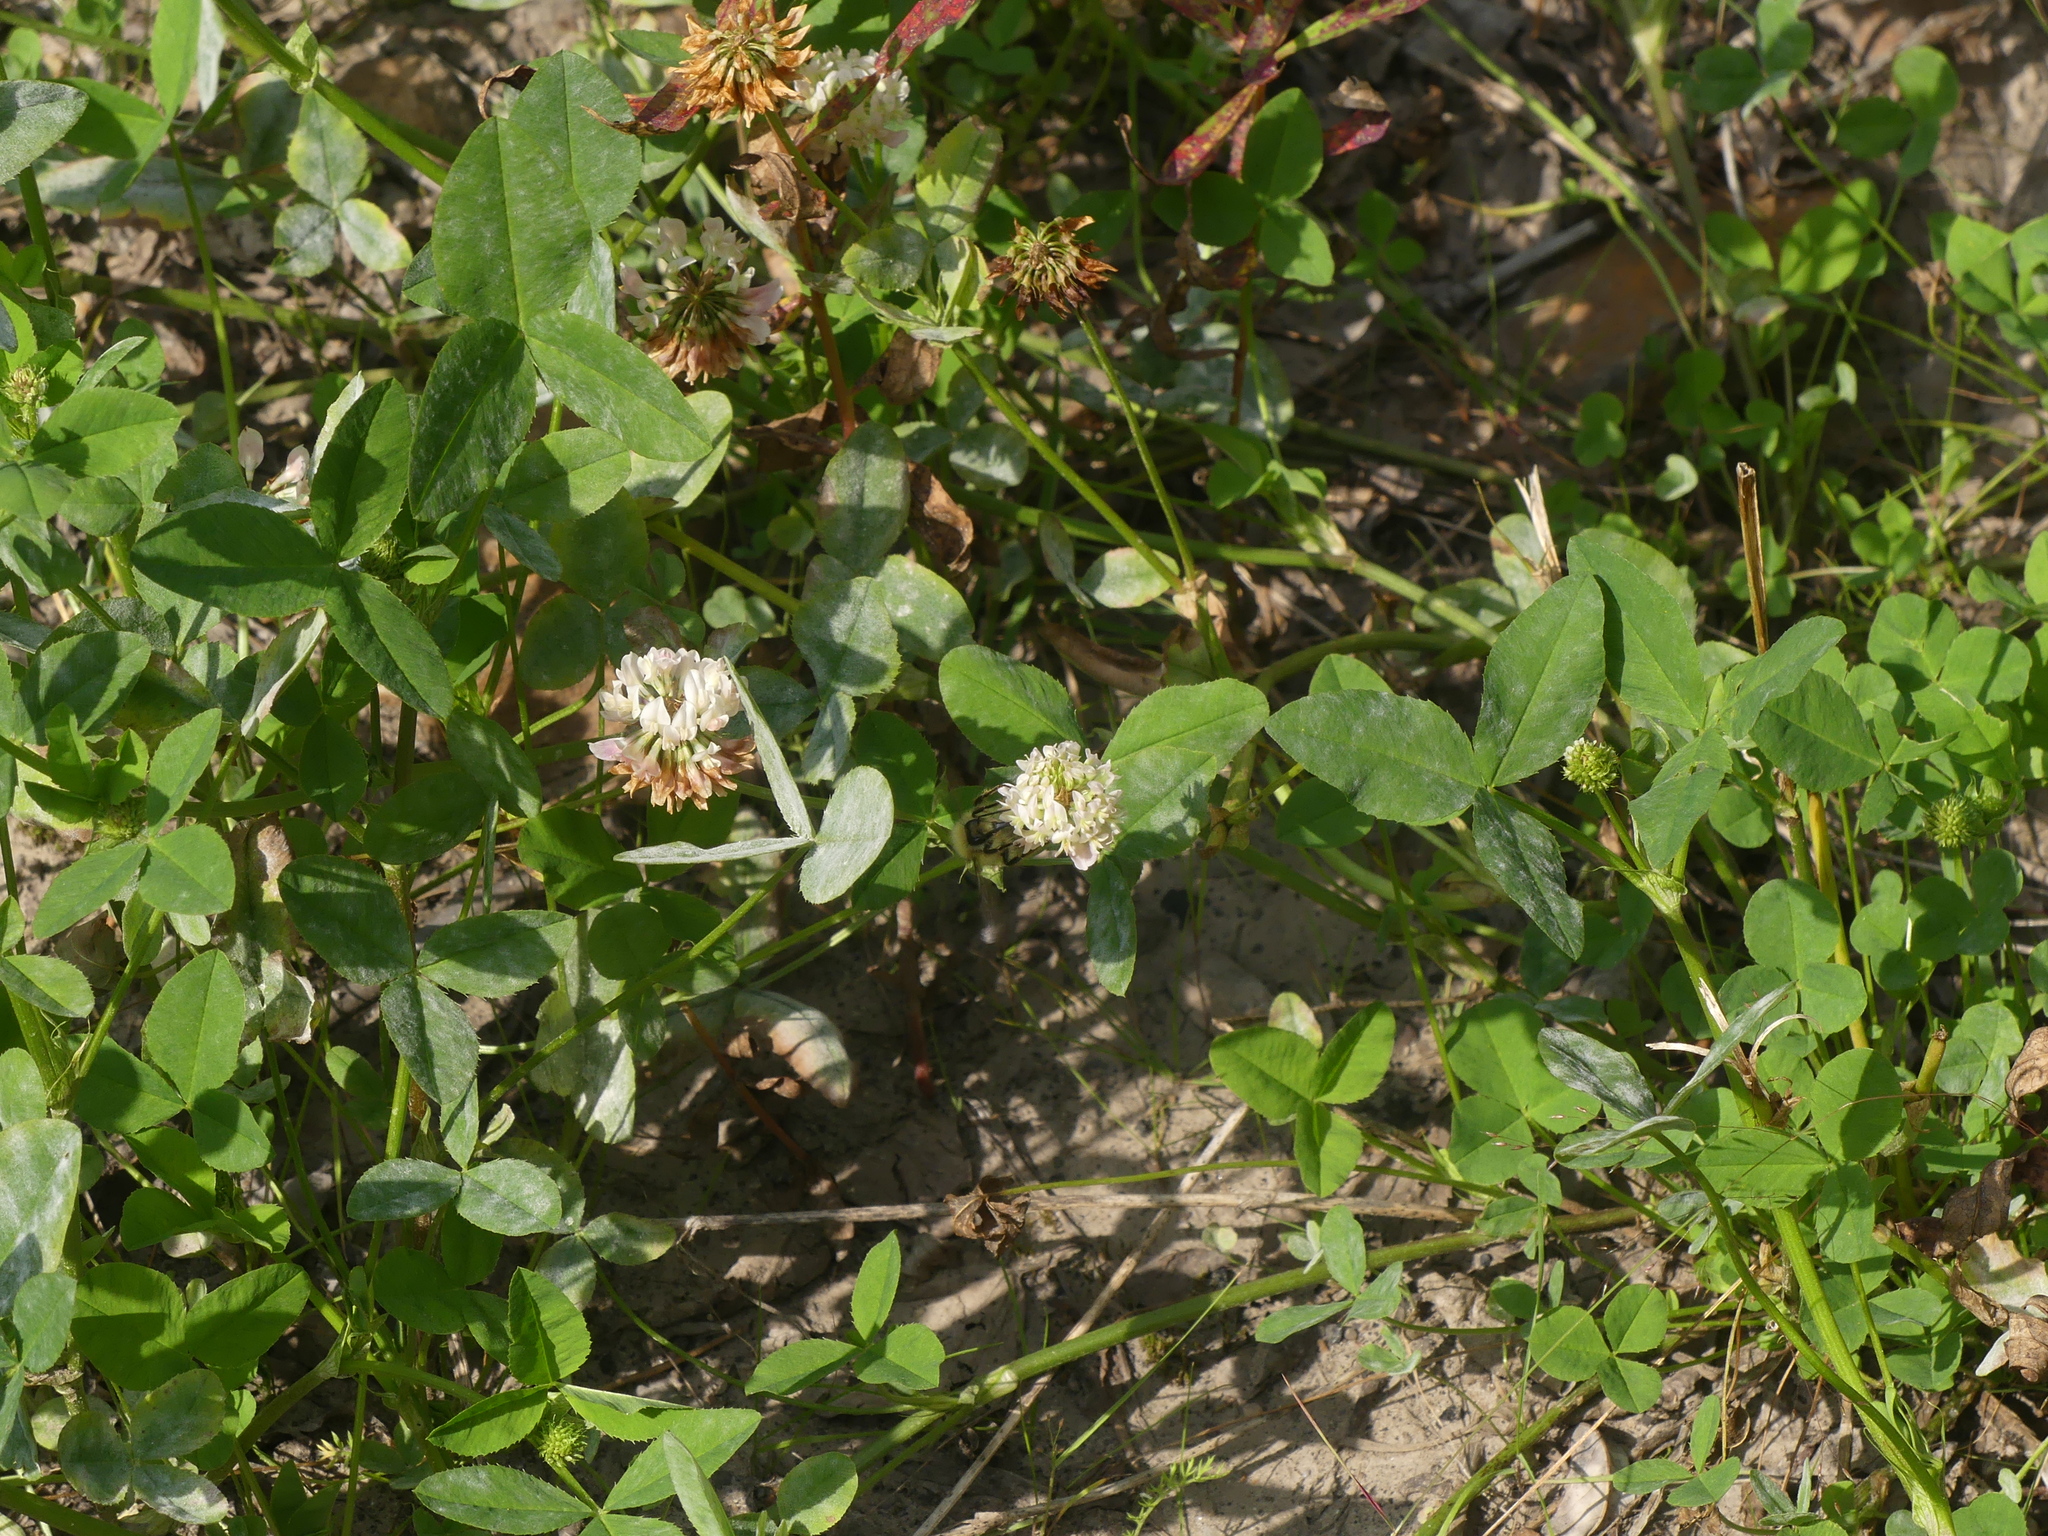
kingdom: Plantae
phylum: Tracheophyta
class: Magnoliopsida
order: Fabales
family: Fabaceae
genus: Trifolium
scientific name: Trifolium hybridum
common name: Alsike clover
